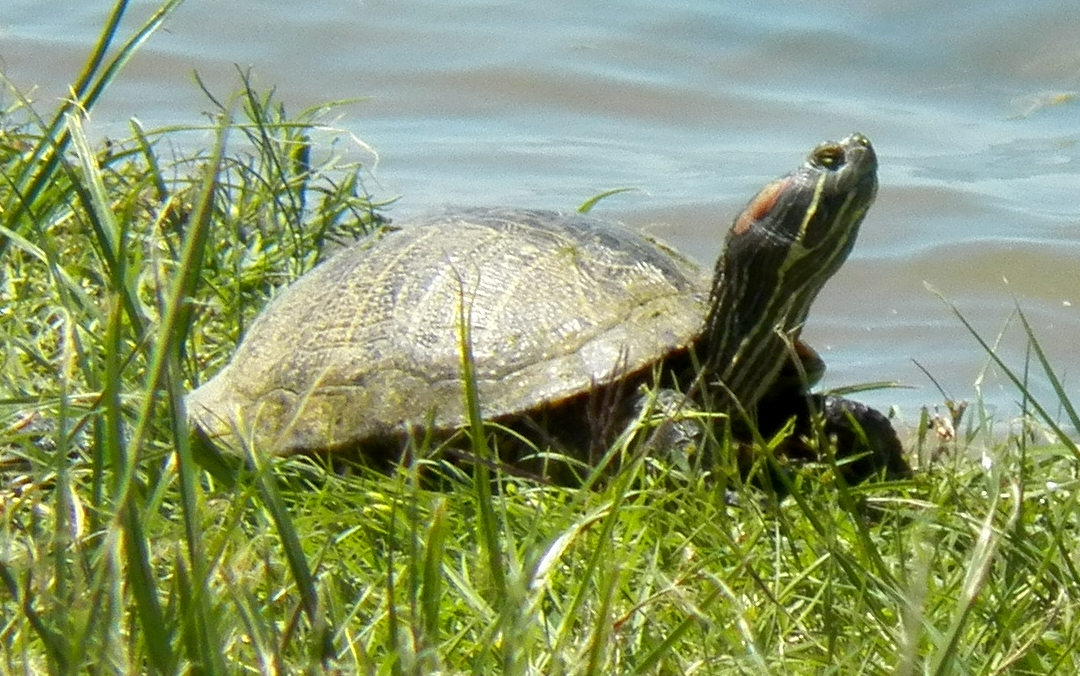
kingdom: Animalia
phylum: Chordata
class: Testudines
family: Emydidae
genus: Trachemys
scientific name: Trachemys scripta
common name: Slider
